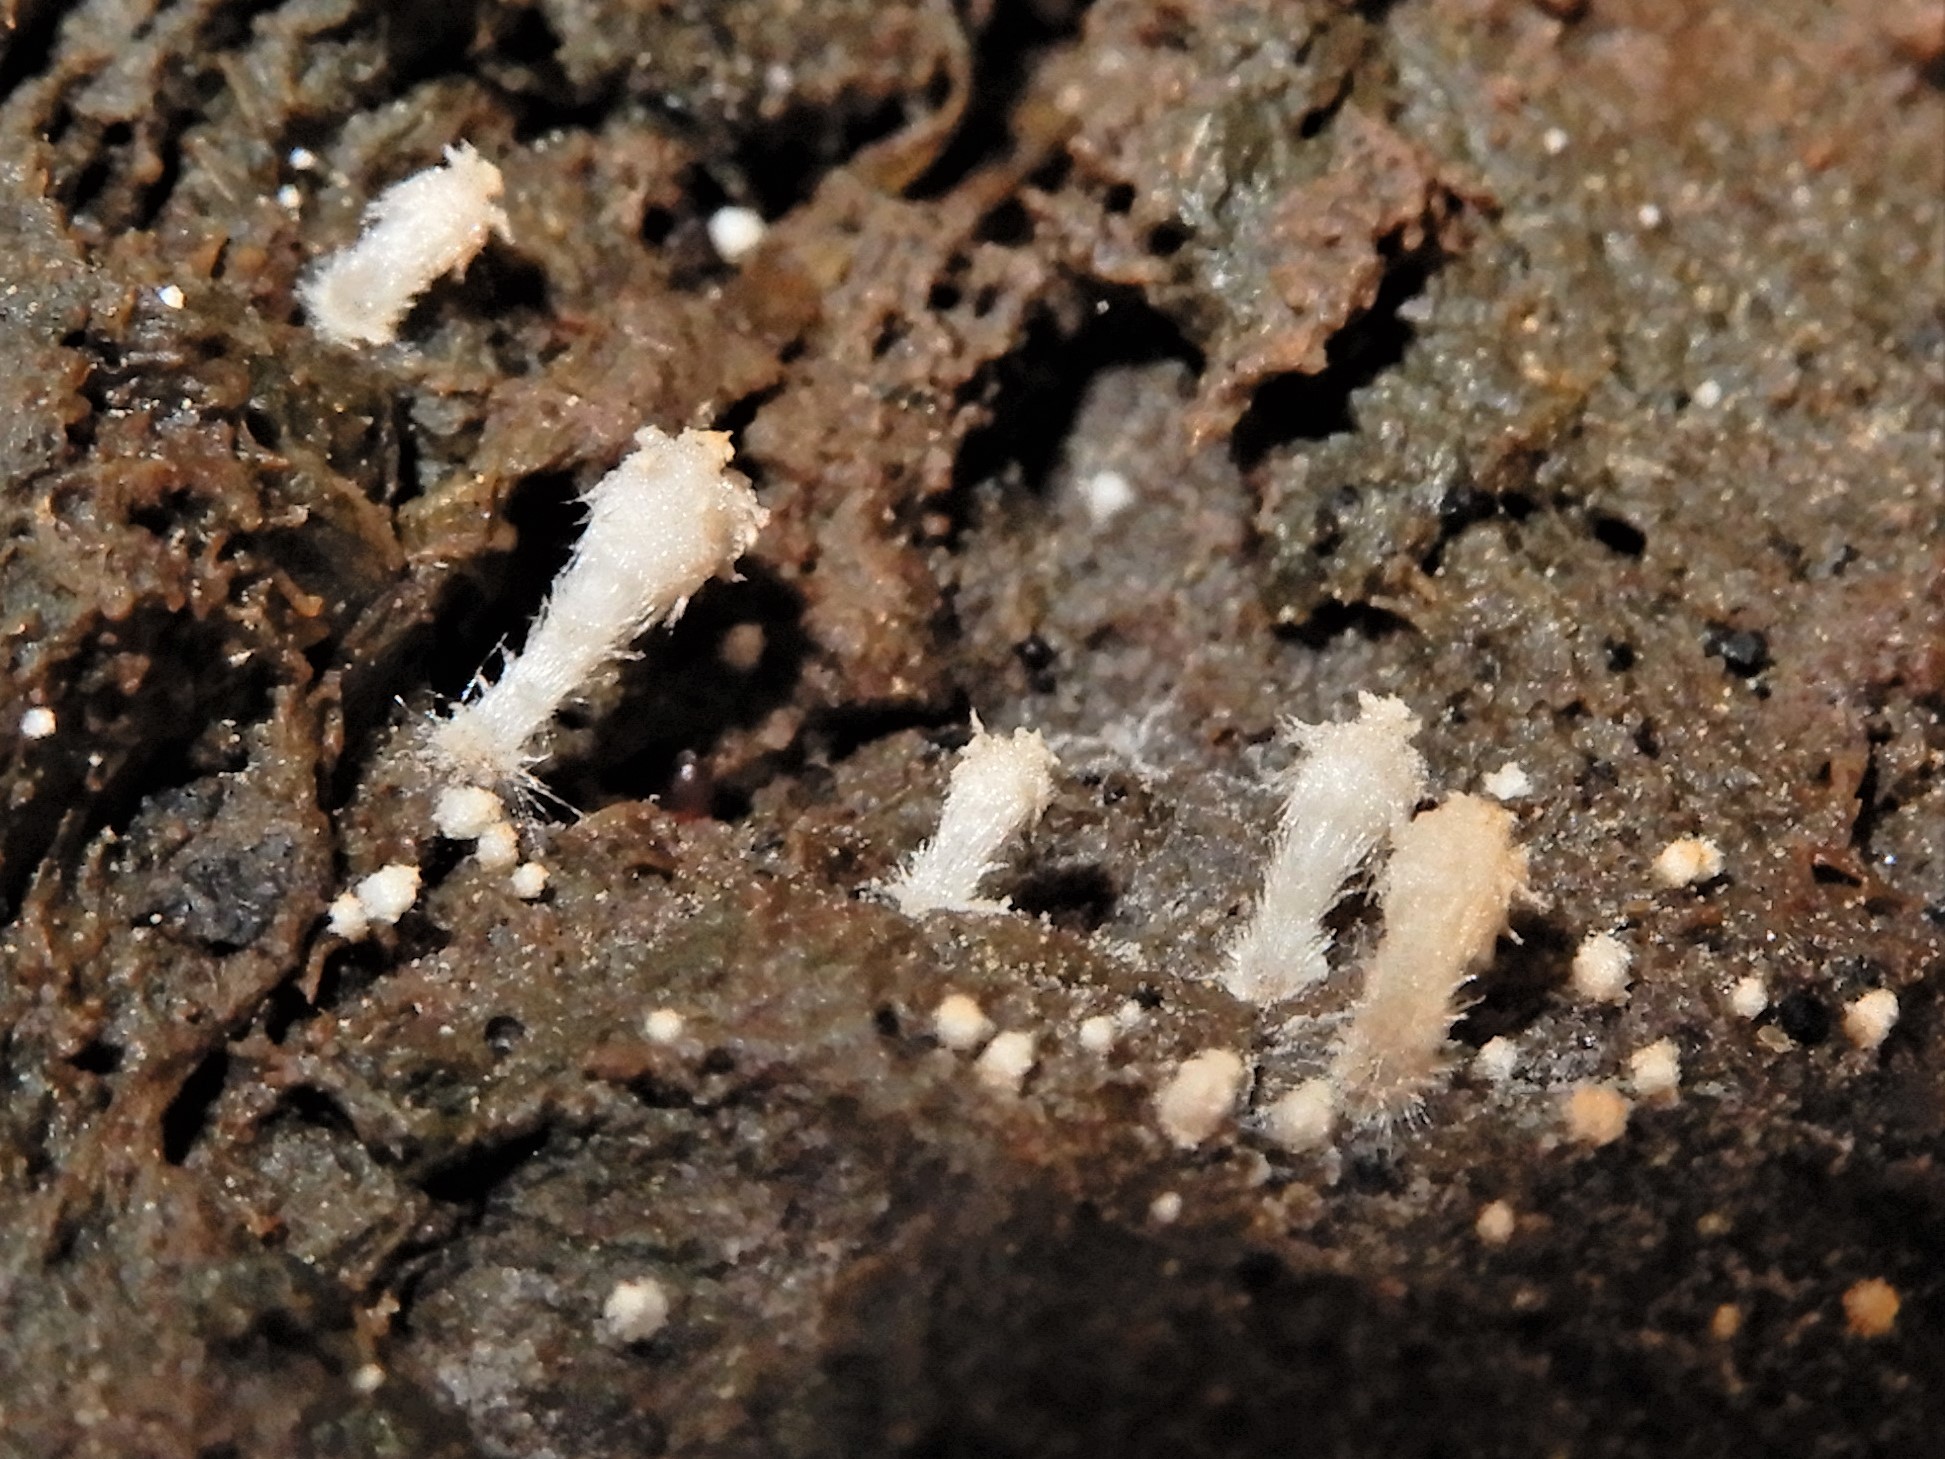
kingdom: Fungi
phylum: Ascomycota
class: Sordariomycetes
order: Hypocreales
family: Myrotheciomycetaceae
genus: Emericellopsis
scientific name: Emericellopsis
